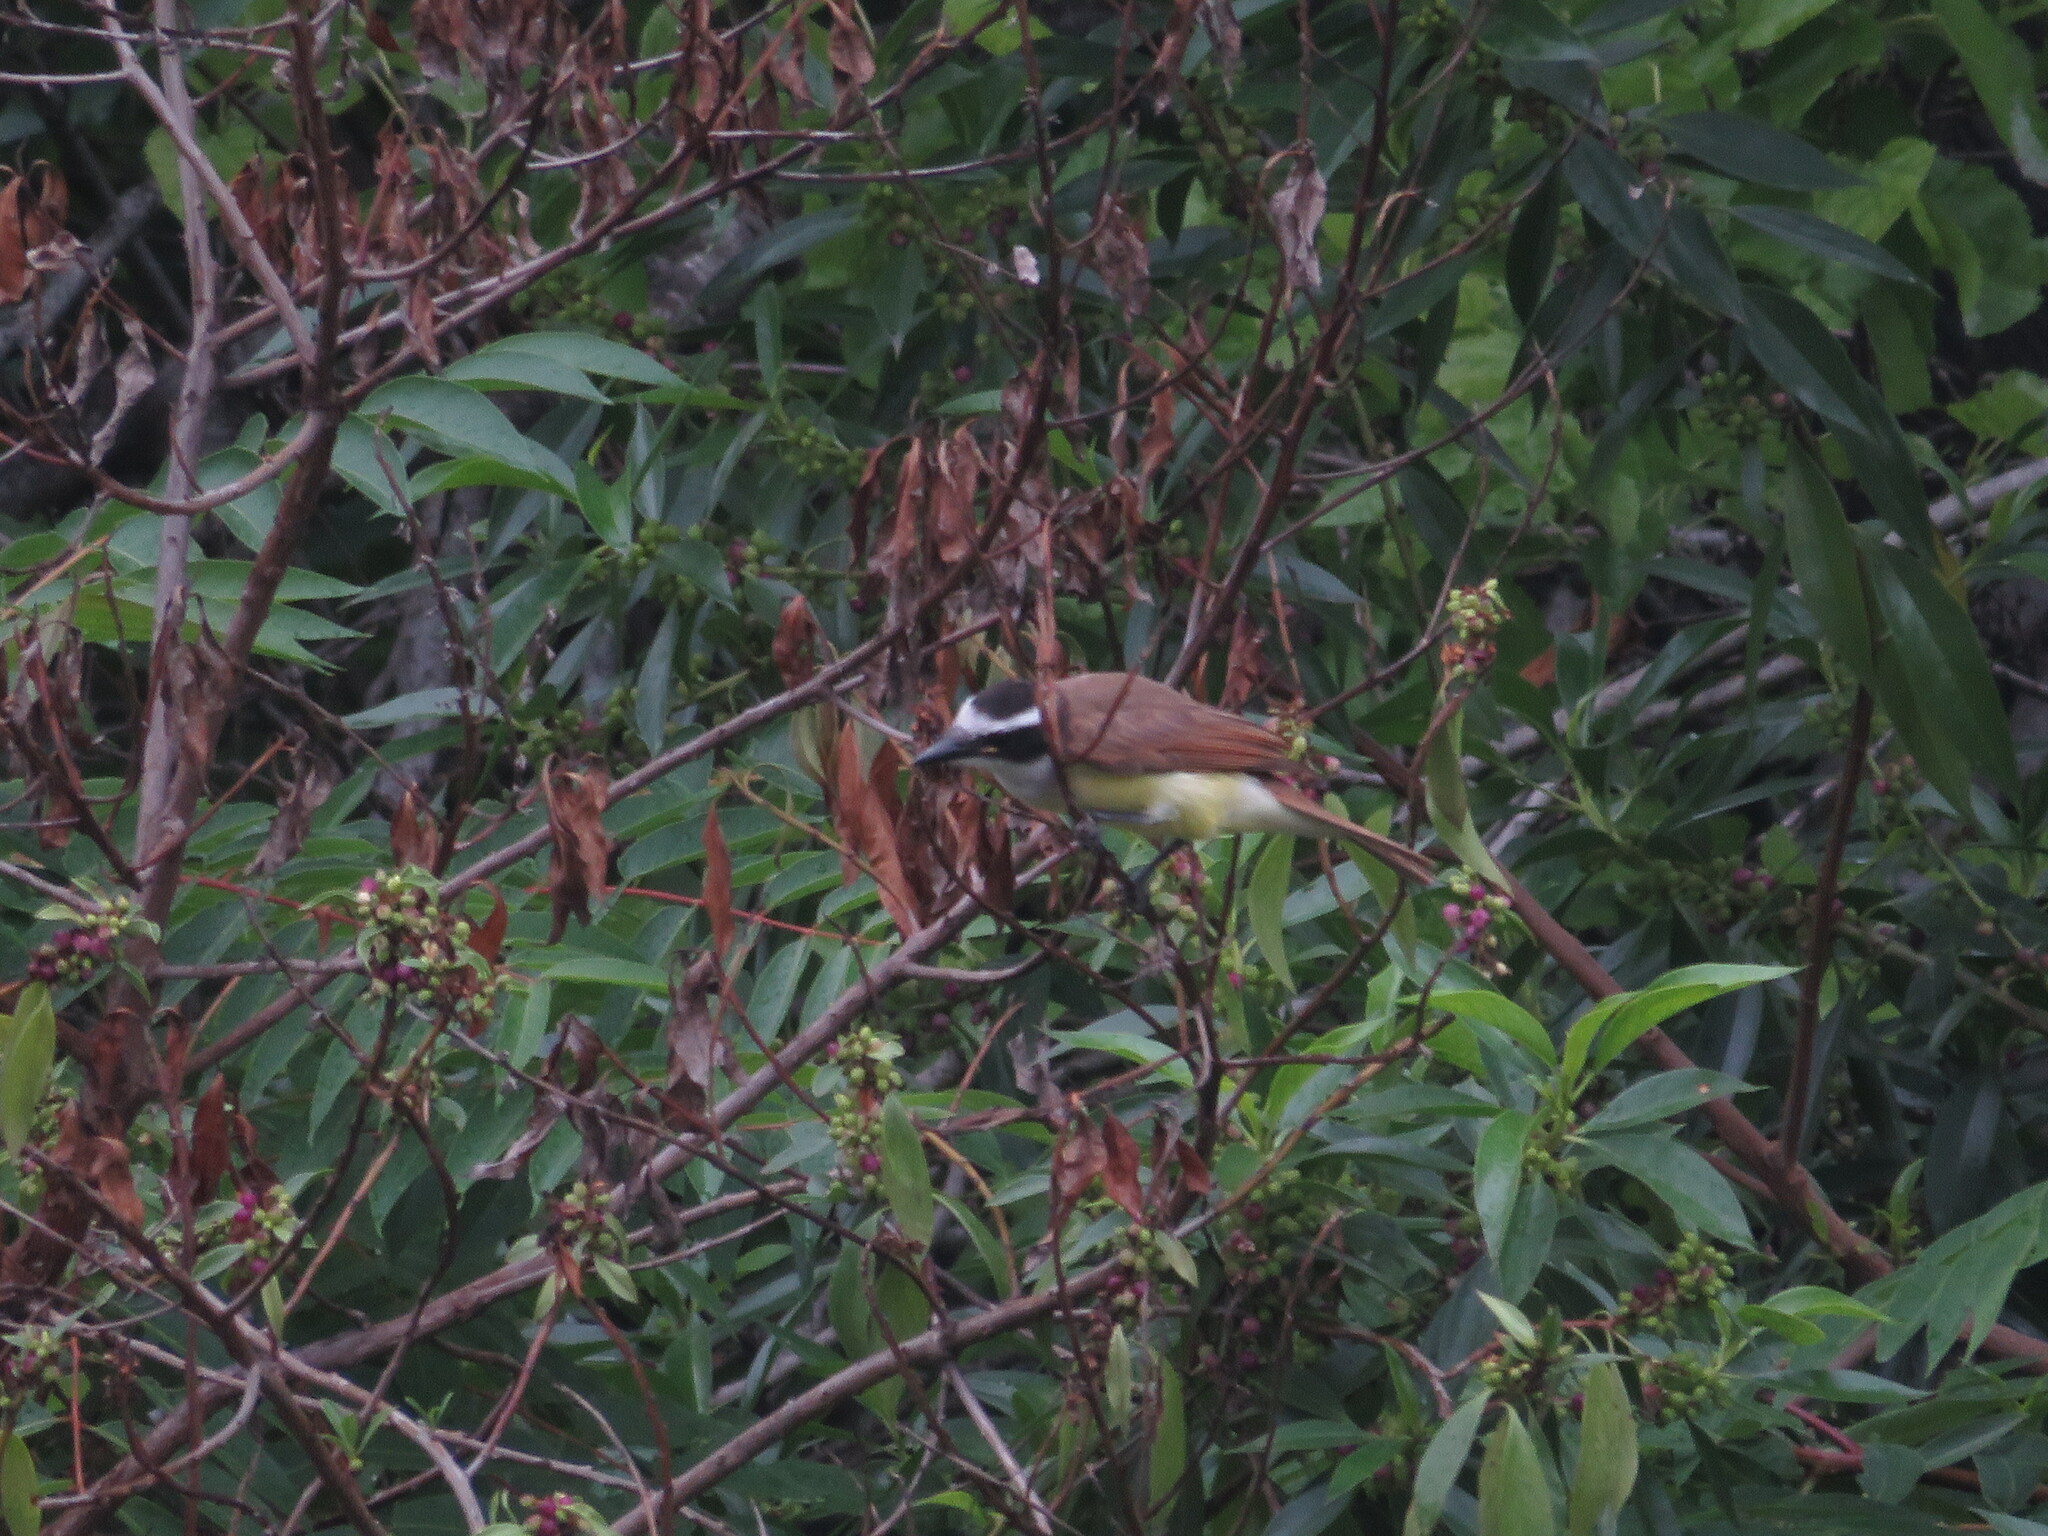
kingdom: Animalia
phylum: Chordata
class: Aves
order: Passeriformes
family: Tyrannidae
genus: Pitangus
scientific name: Pitangus sulphuratus
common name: Great kiskadee
